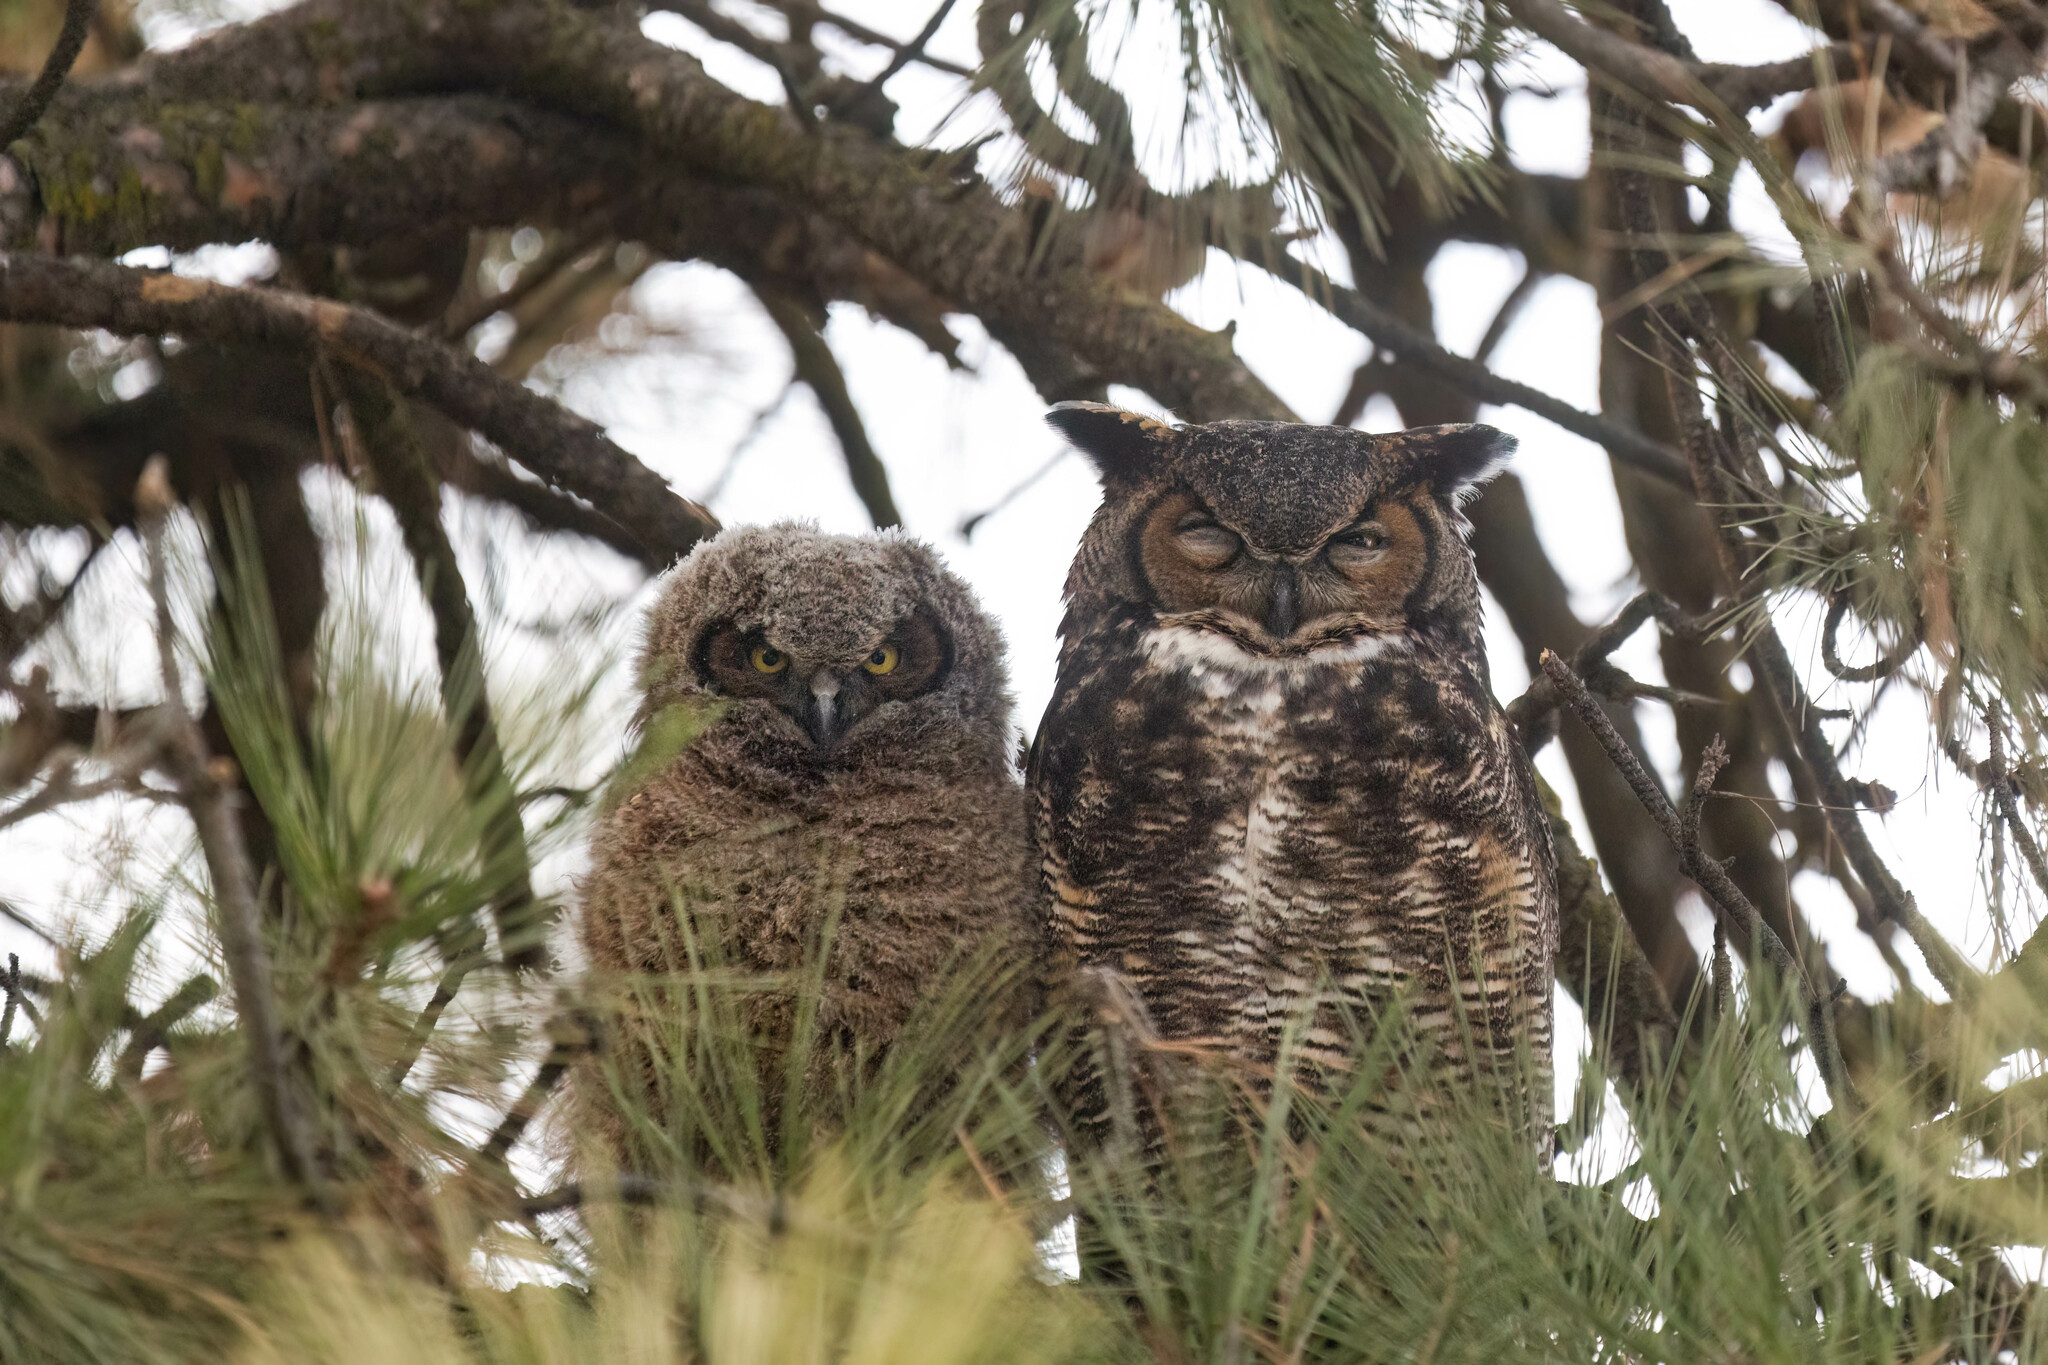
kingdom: Animalia
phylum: Chordata
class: Aves
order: Strigiformes
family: Strigidae
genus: Bubo
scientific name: Bubo virginianus
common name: Great horned owl
